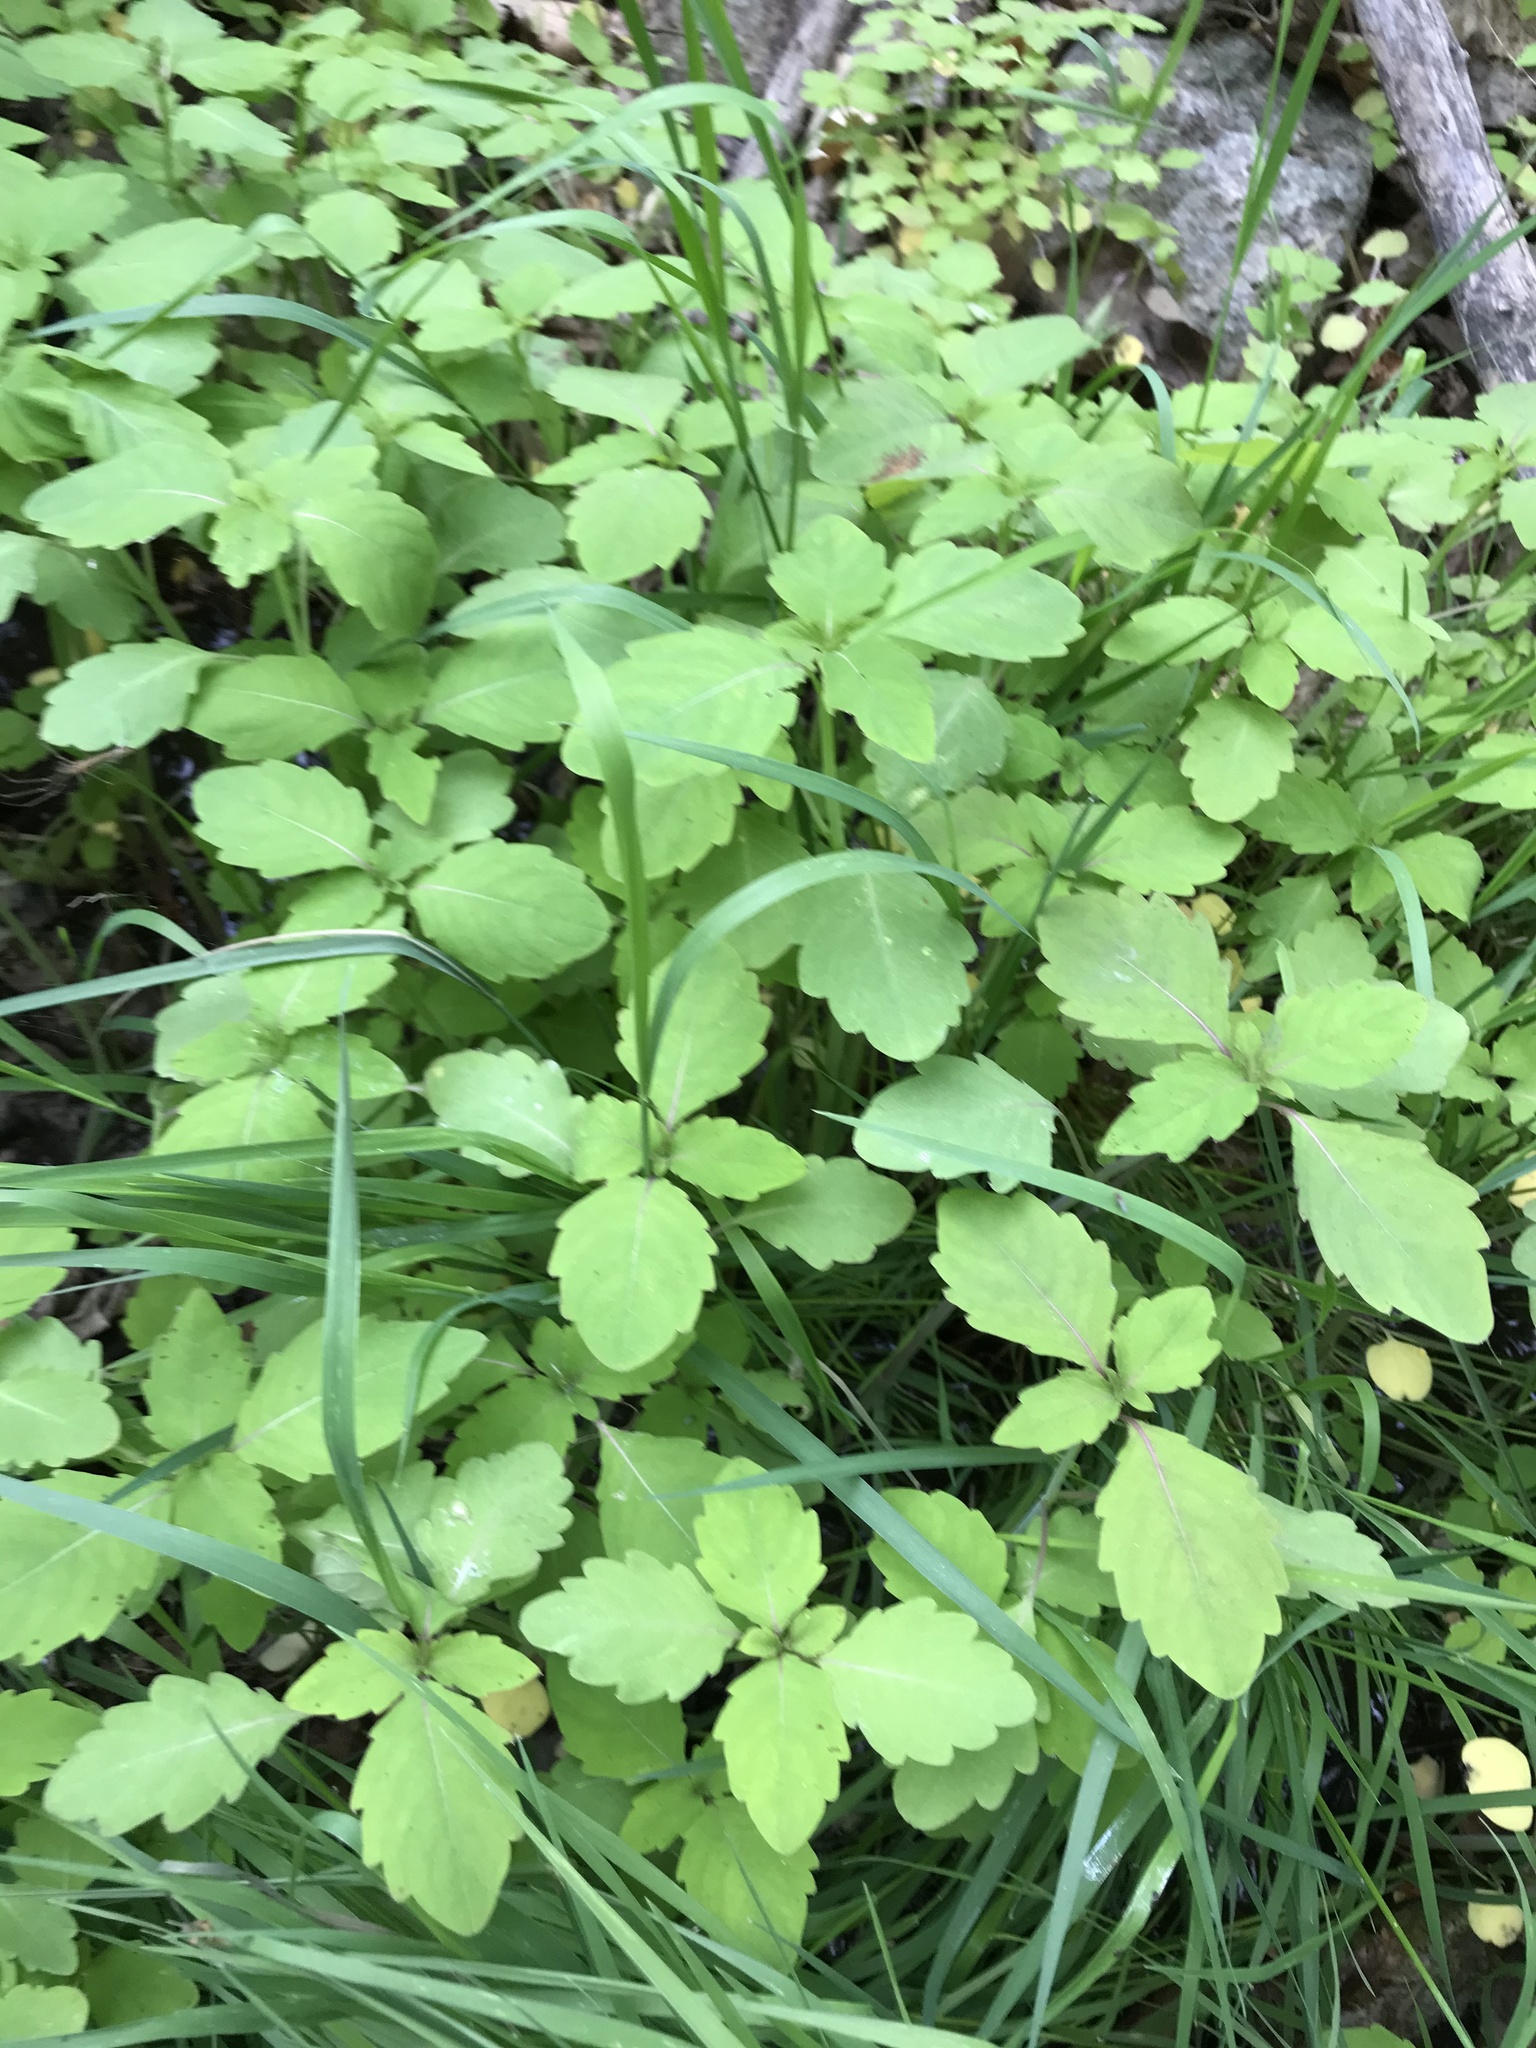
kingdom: Plantae
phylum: Tracheophyta
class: Magnoliopsida
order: Ericales
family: Balsaminaceae
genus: Impatiens
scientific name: Impatiens capensis
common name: Orange balsam
